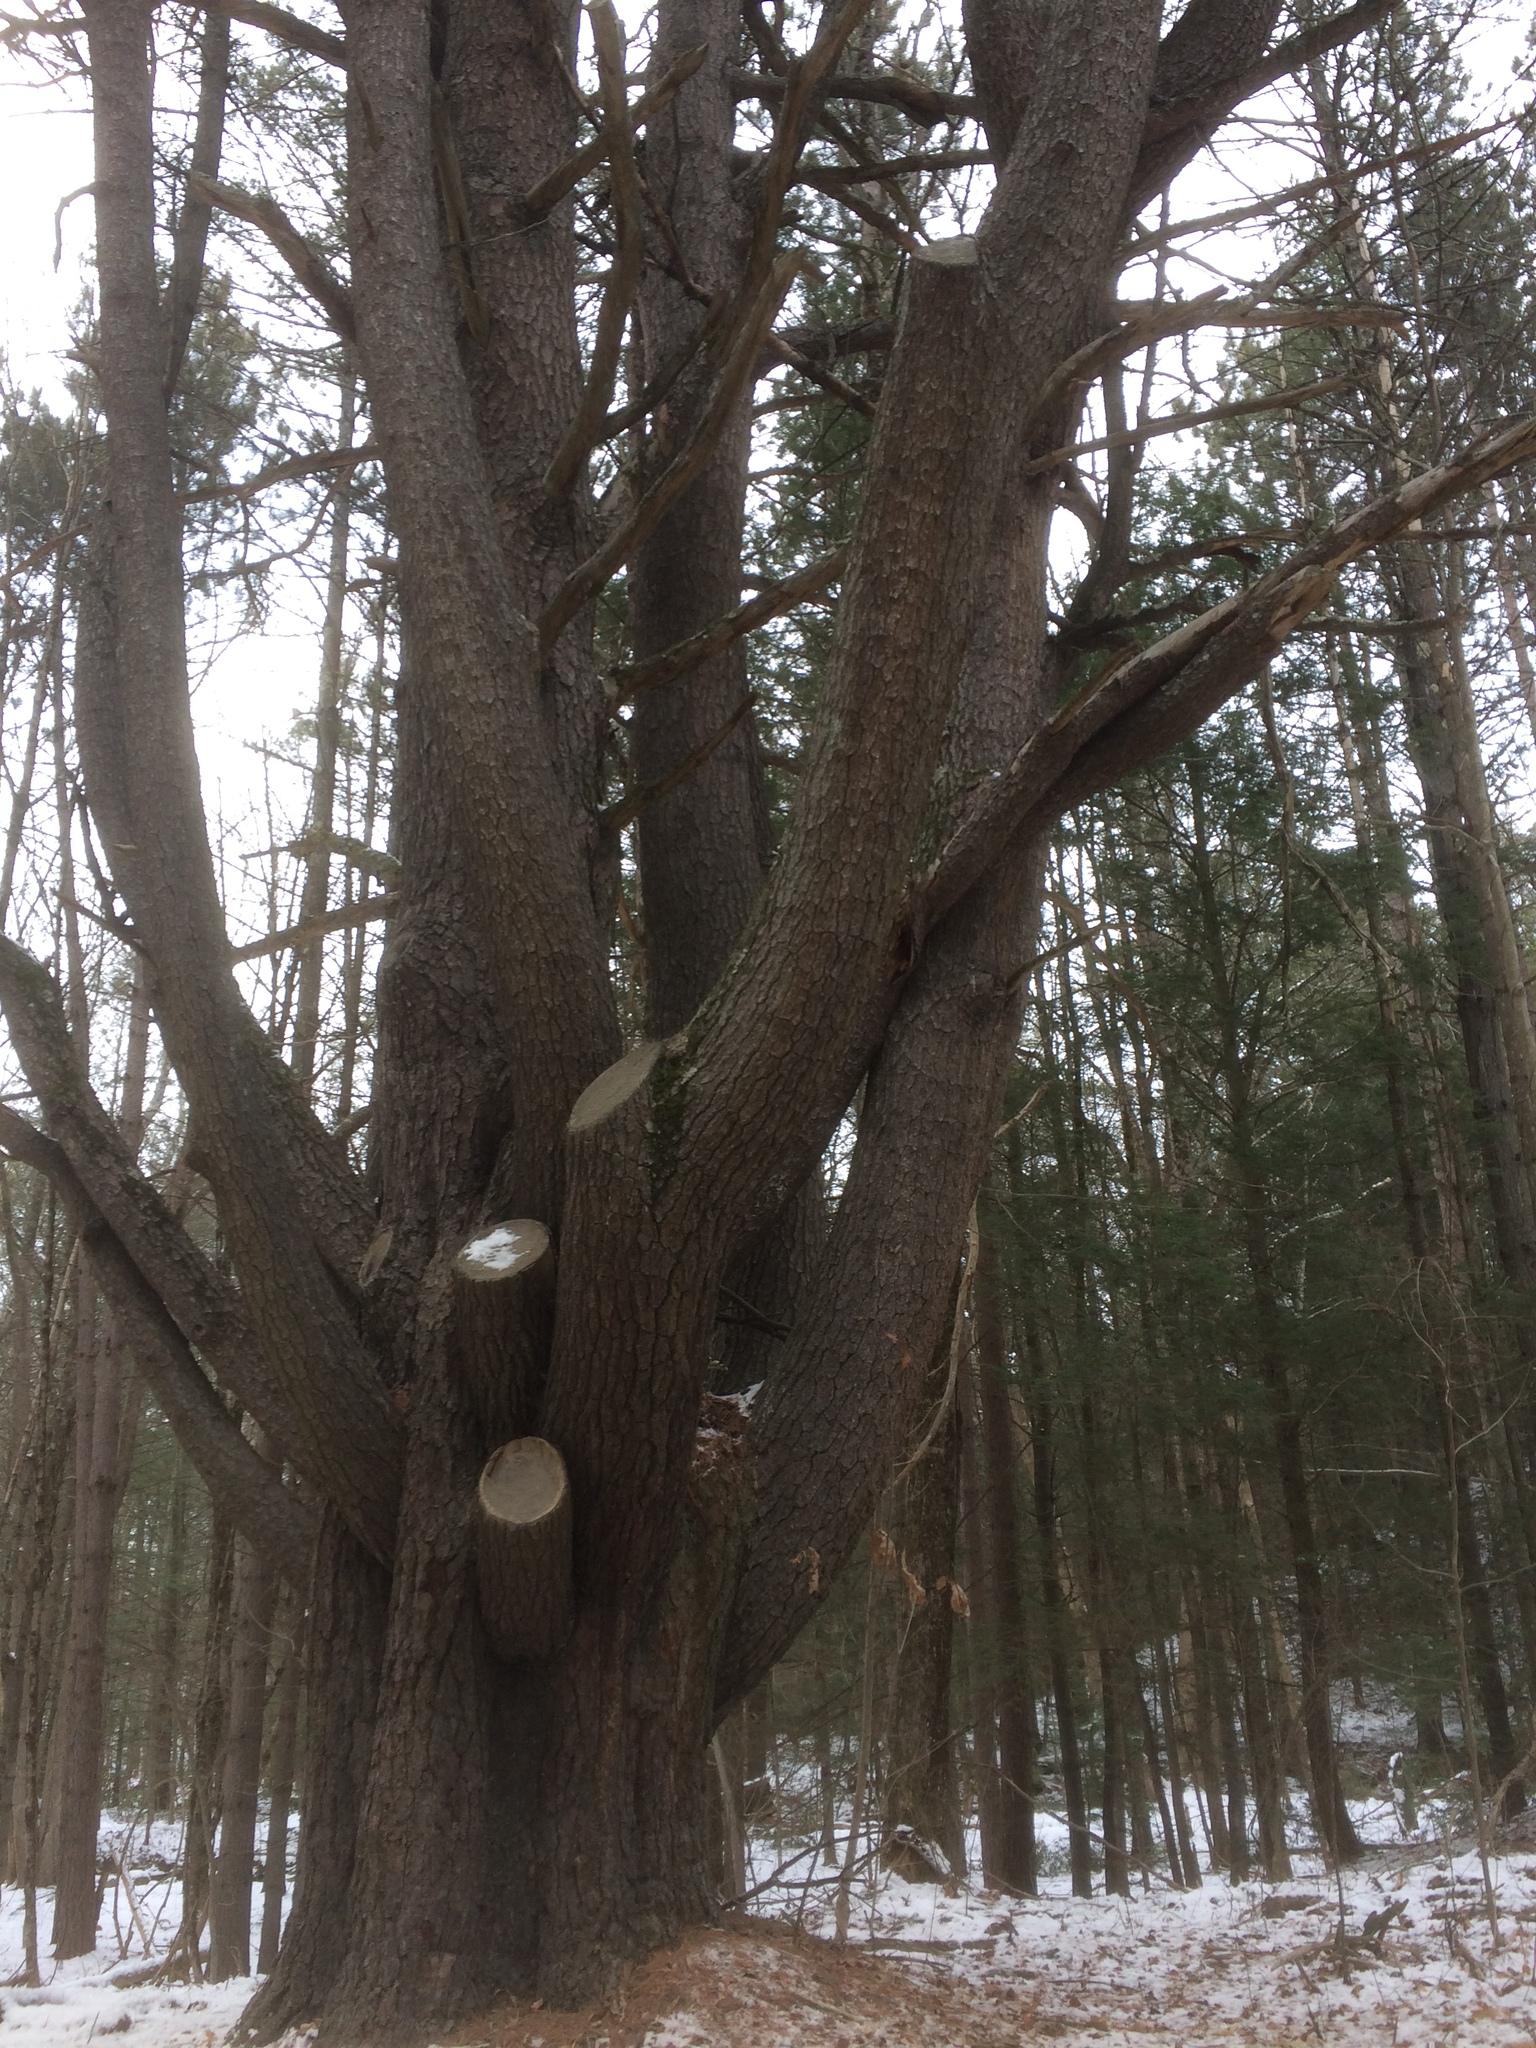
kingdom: Plantae
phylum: Tracheophyta
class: Pinopsida
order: Pinales
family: Pinaceae
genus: Pinus
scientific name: Pinus strobus
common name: Weymouth pine
